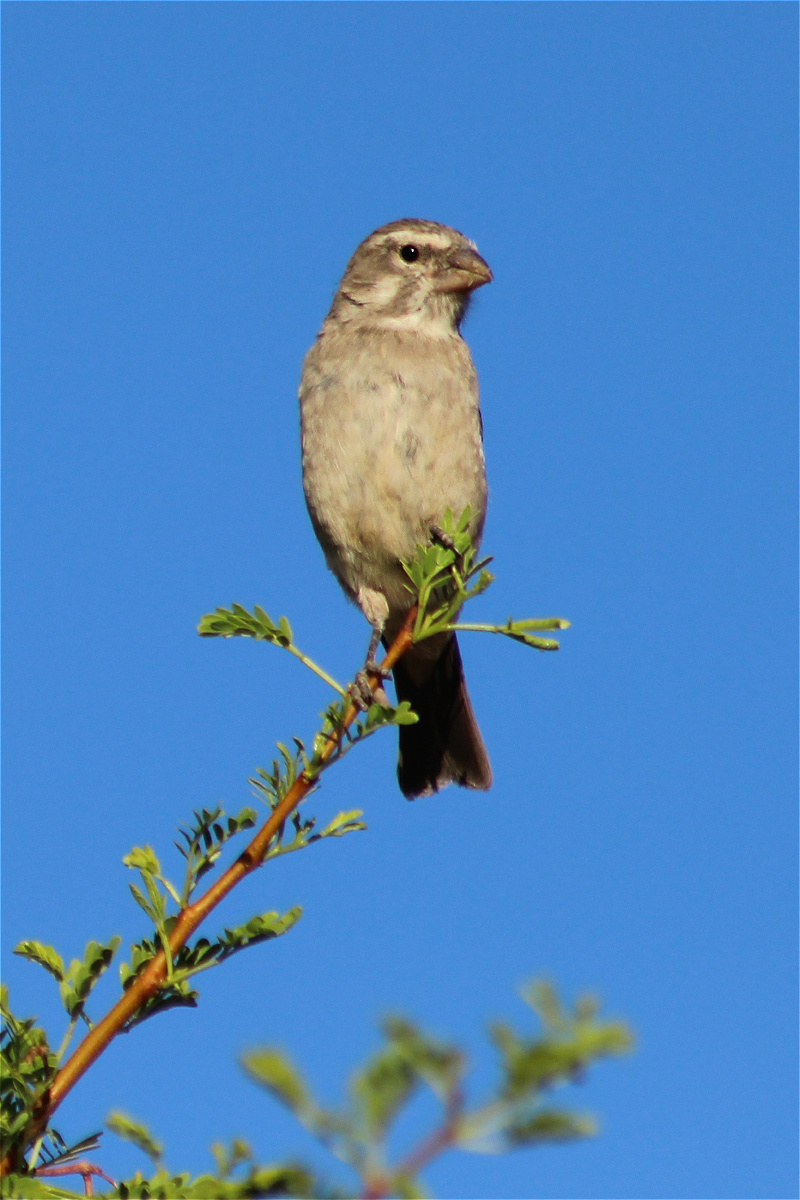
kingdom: Animalia
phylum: Chordata
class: Aves
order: Passeriformes
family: Fringillidae
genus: Crithagra
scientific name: Crithagra albogularis
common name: White-throated canary
